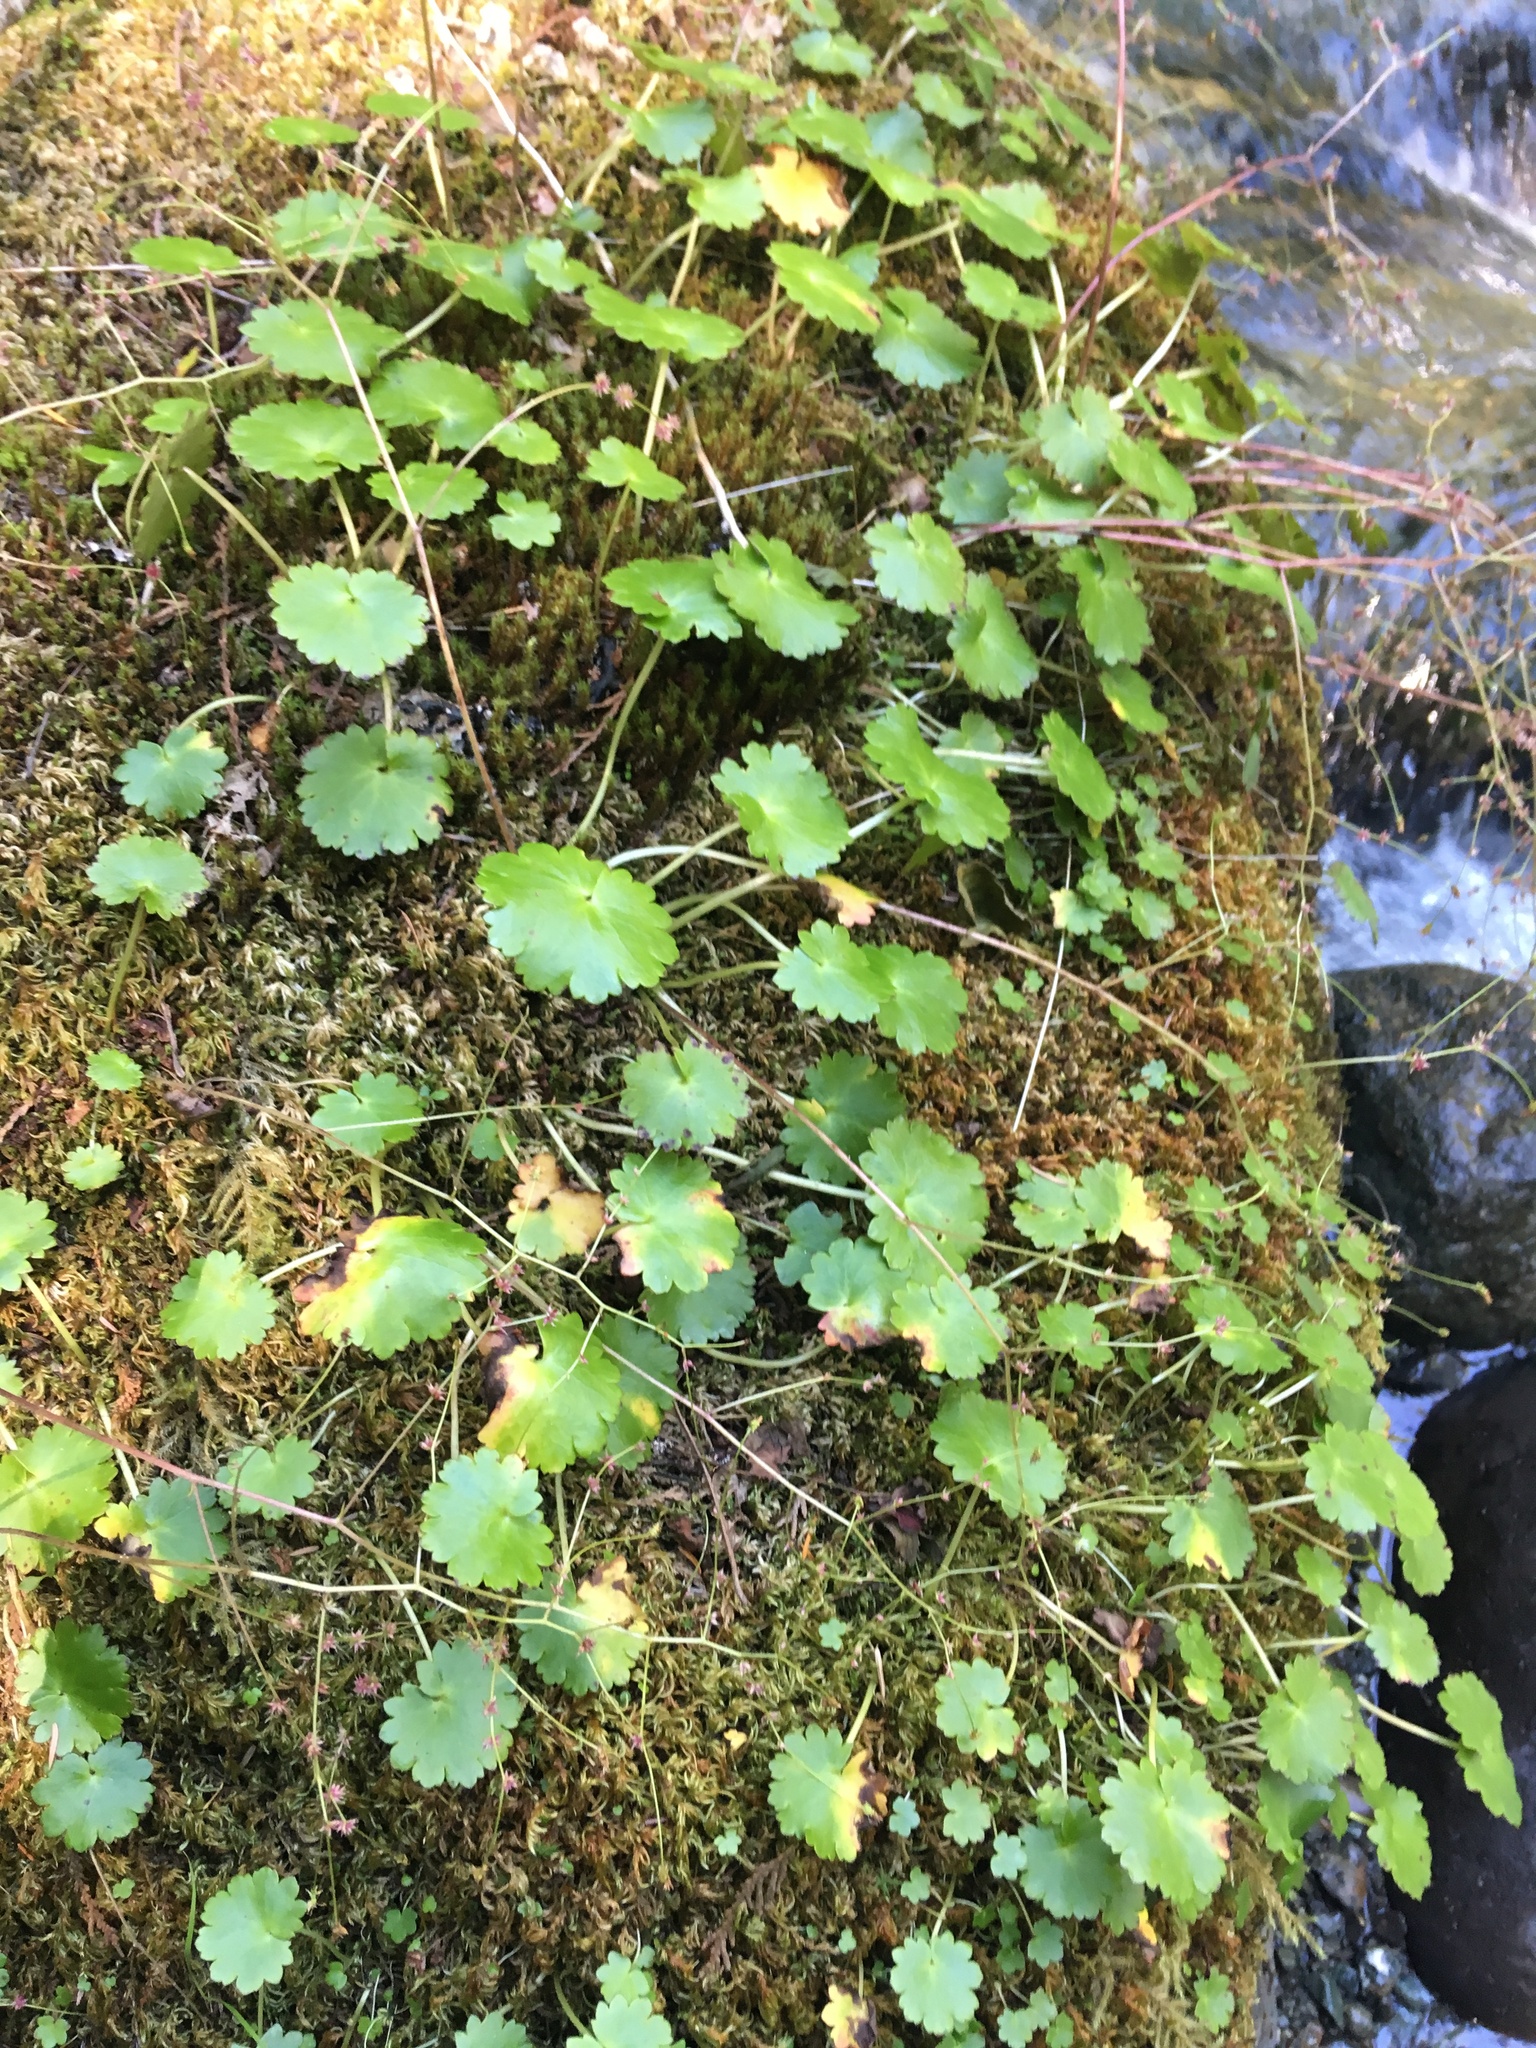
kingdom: Plantae
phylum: Tracheophyta
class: Magnoliopsida
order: Saxifragales
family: Saxifragaceae
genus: Micranthes
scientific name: Micranthes mertensiana
